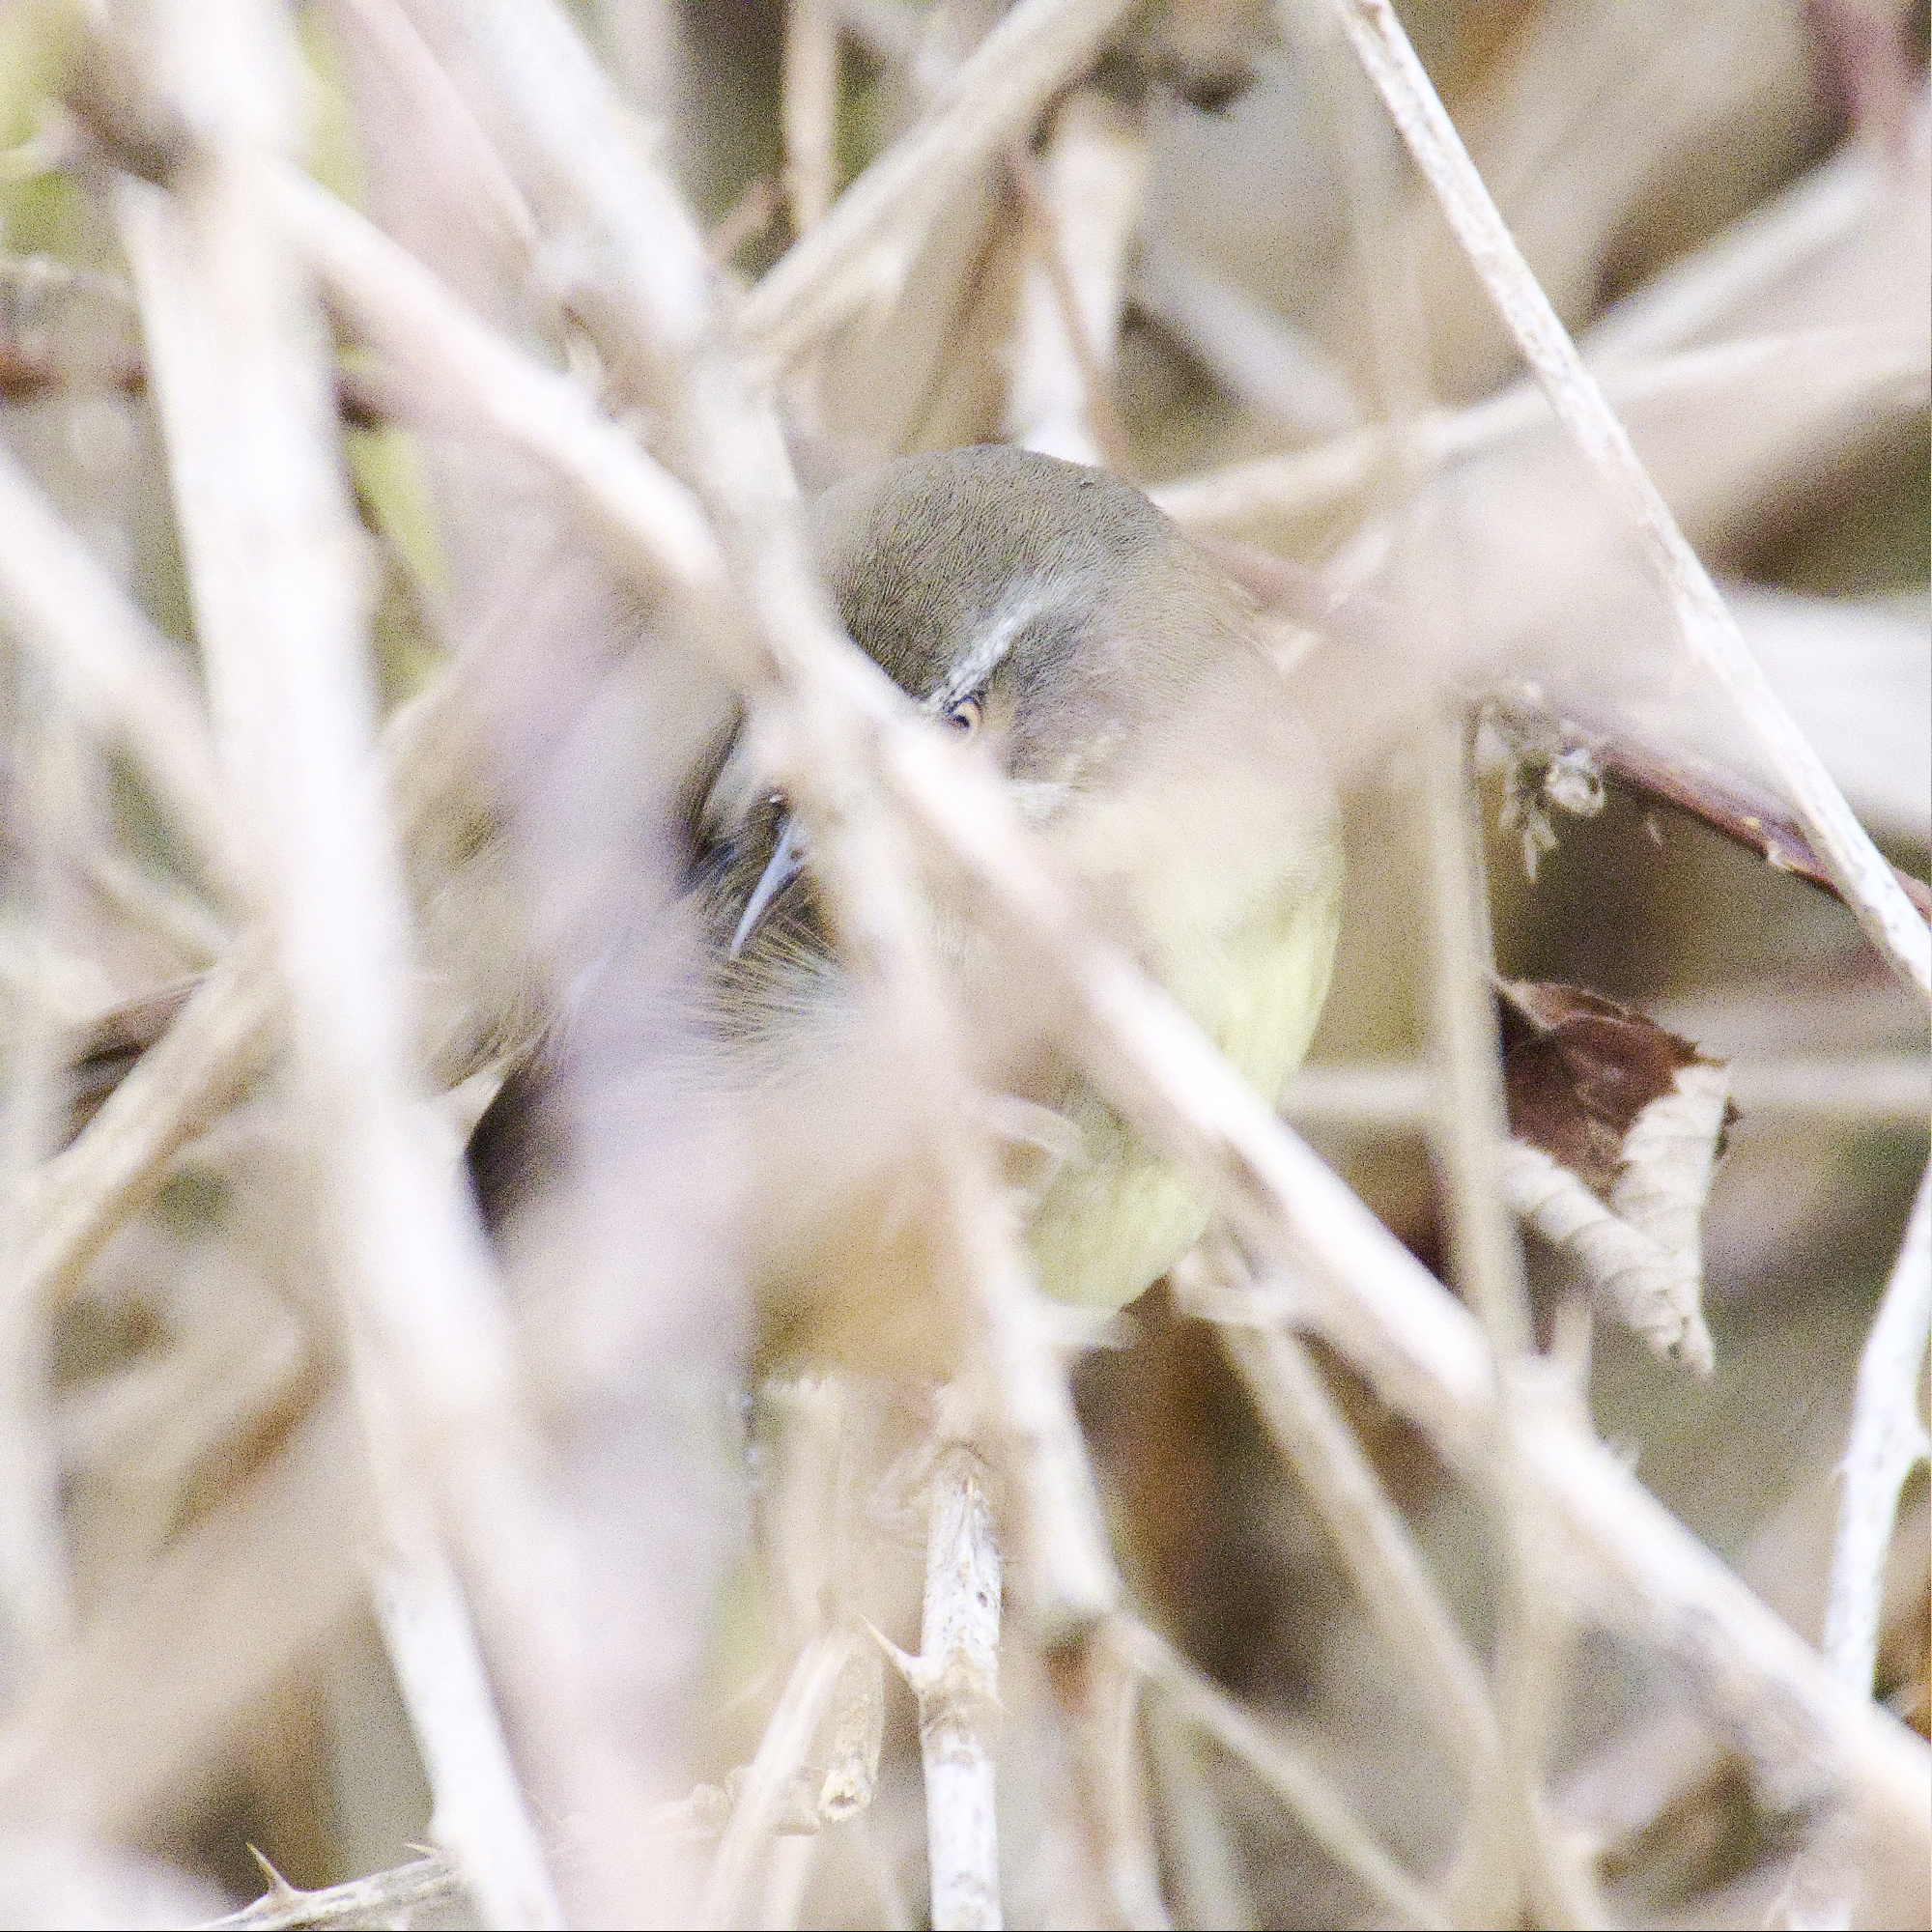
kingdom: Animalia
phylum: Chordata
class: Aves
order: Passeriformes
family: Acanthizidae
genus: Sericornis
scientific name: Sericornis frontalis
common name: White-browed scrubwren
